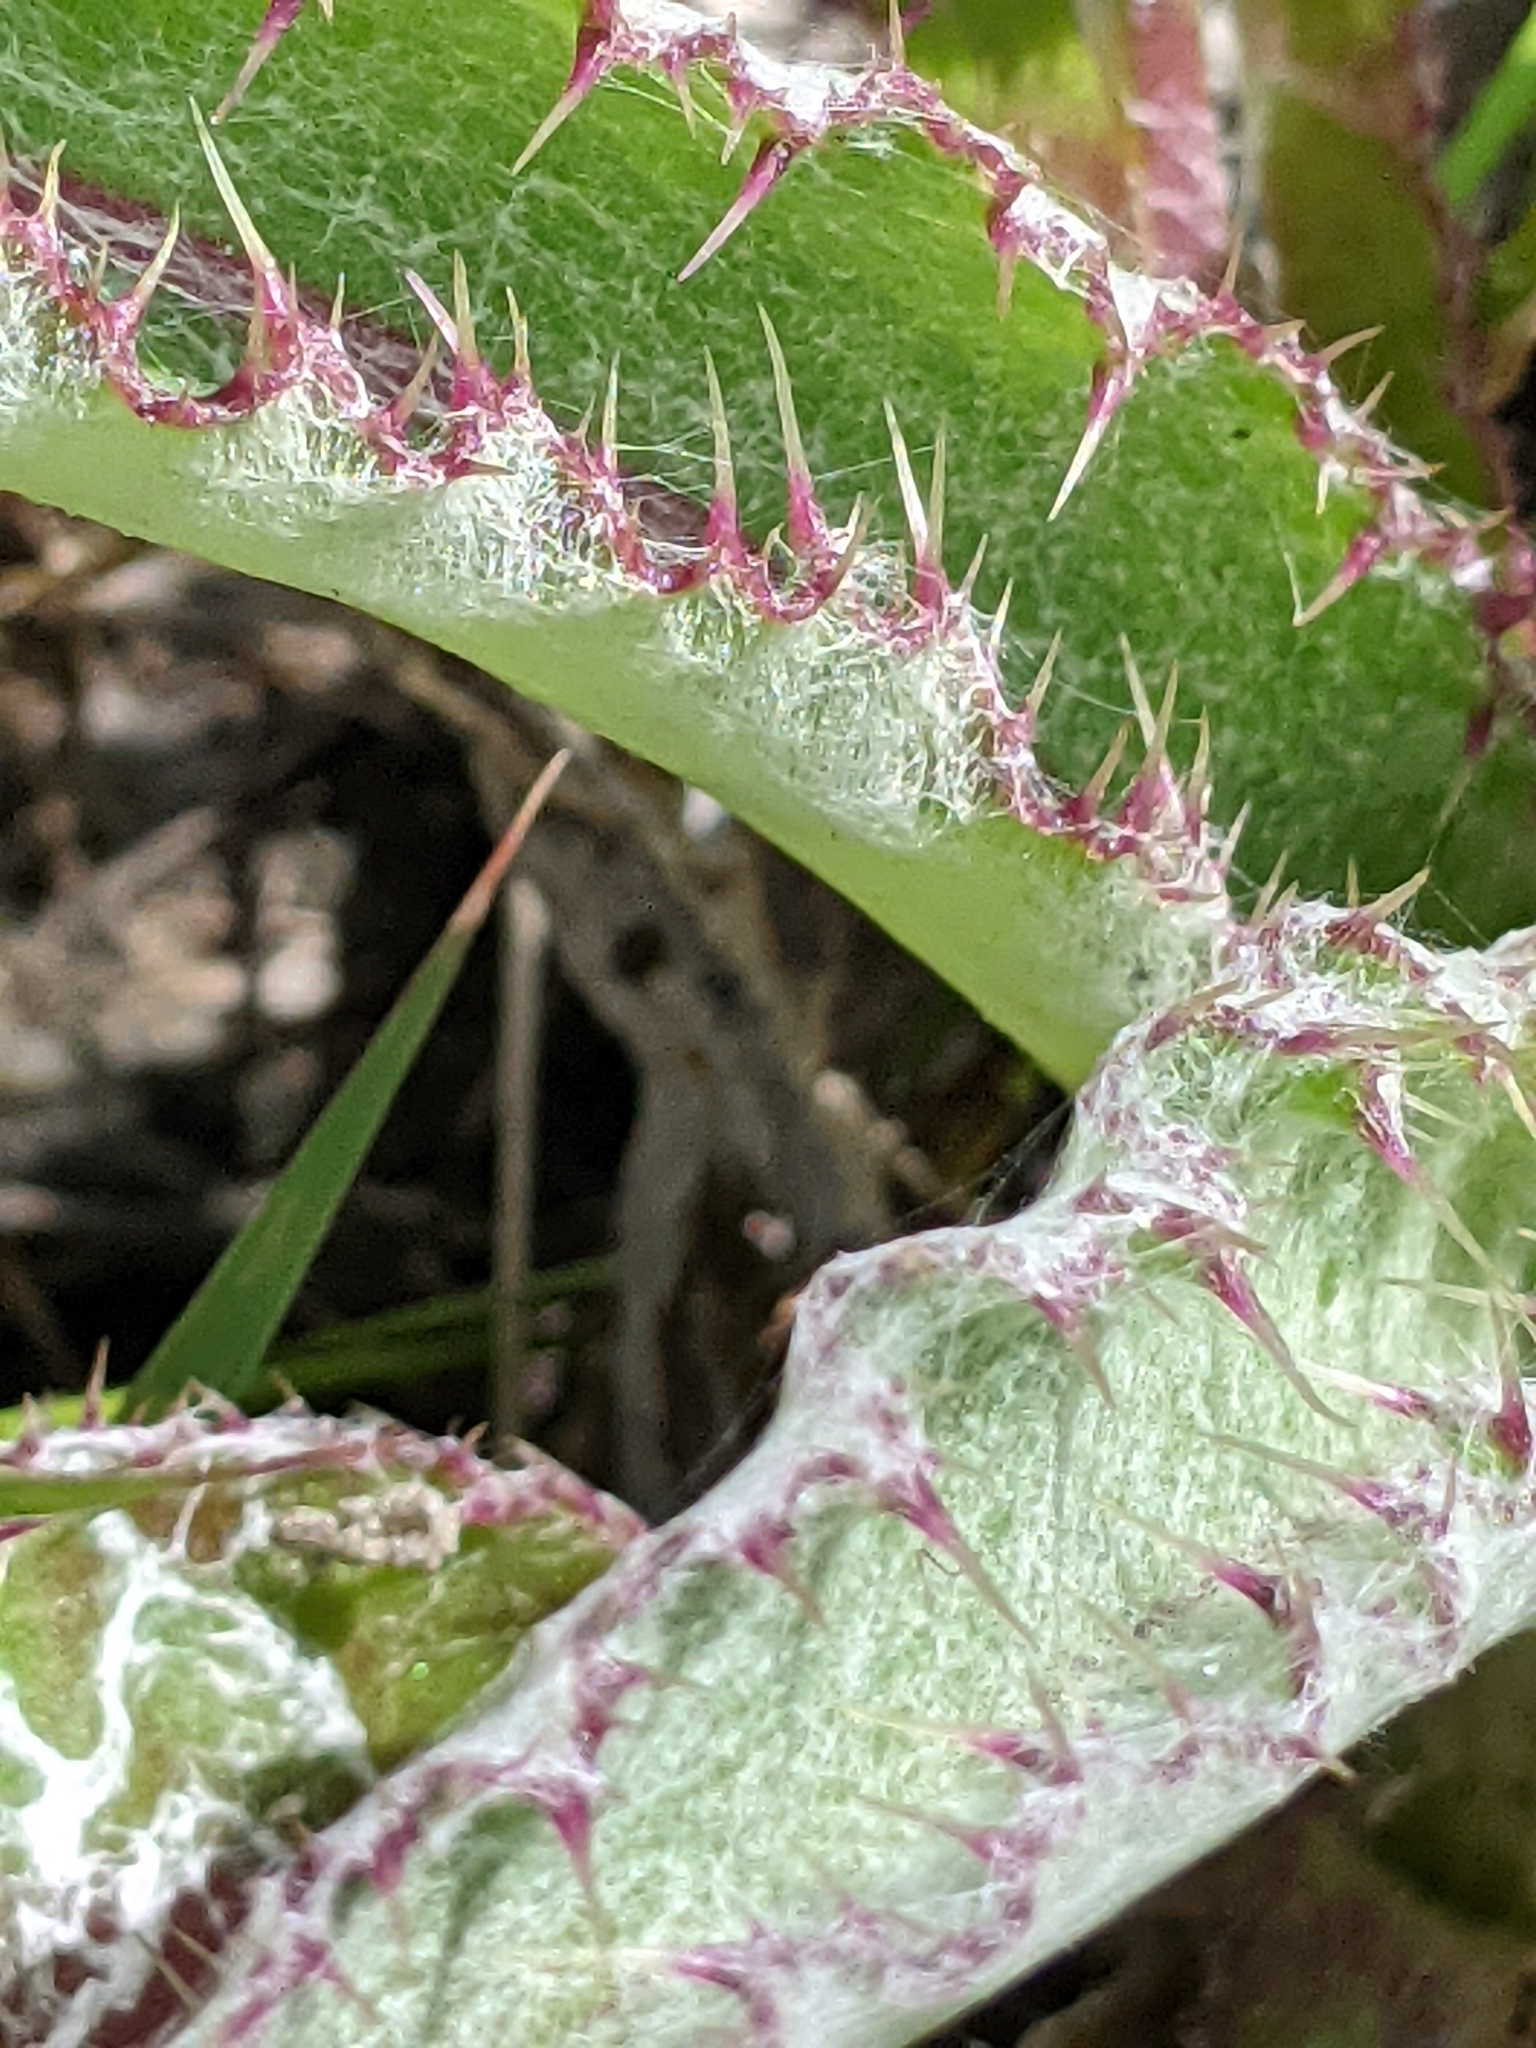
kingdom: Plantae
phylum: Tracheophyta
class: Magnoliopsida
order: Asterales
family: Asteraceae
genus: Cirsium
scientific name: Cirsium horridulum
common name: Bristly thistle
